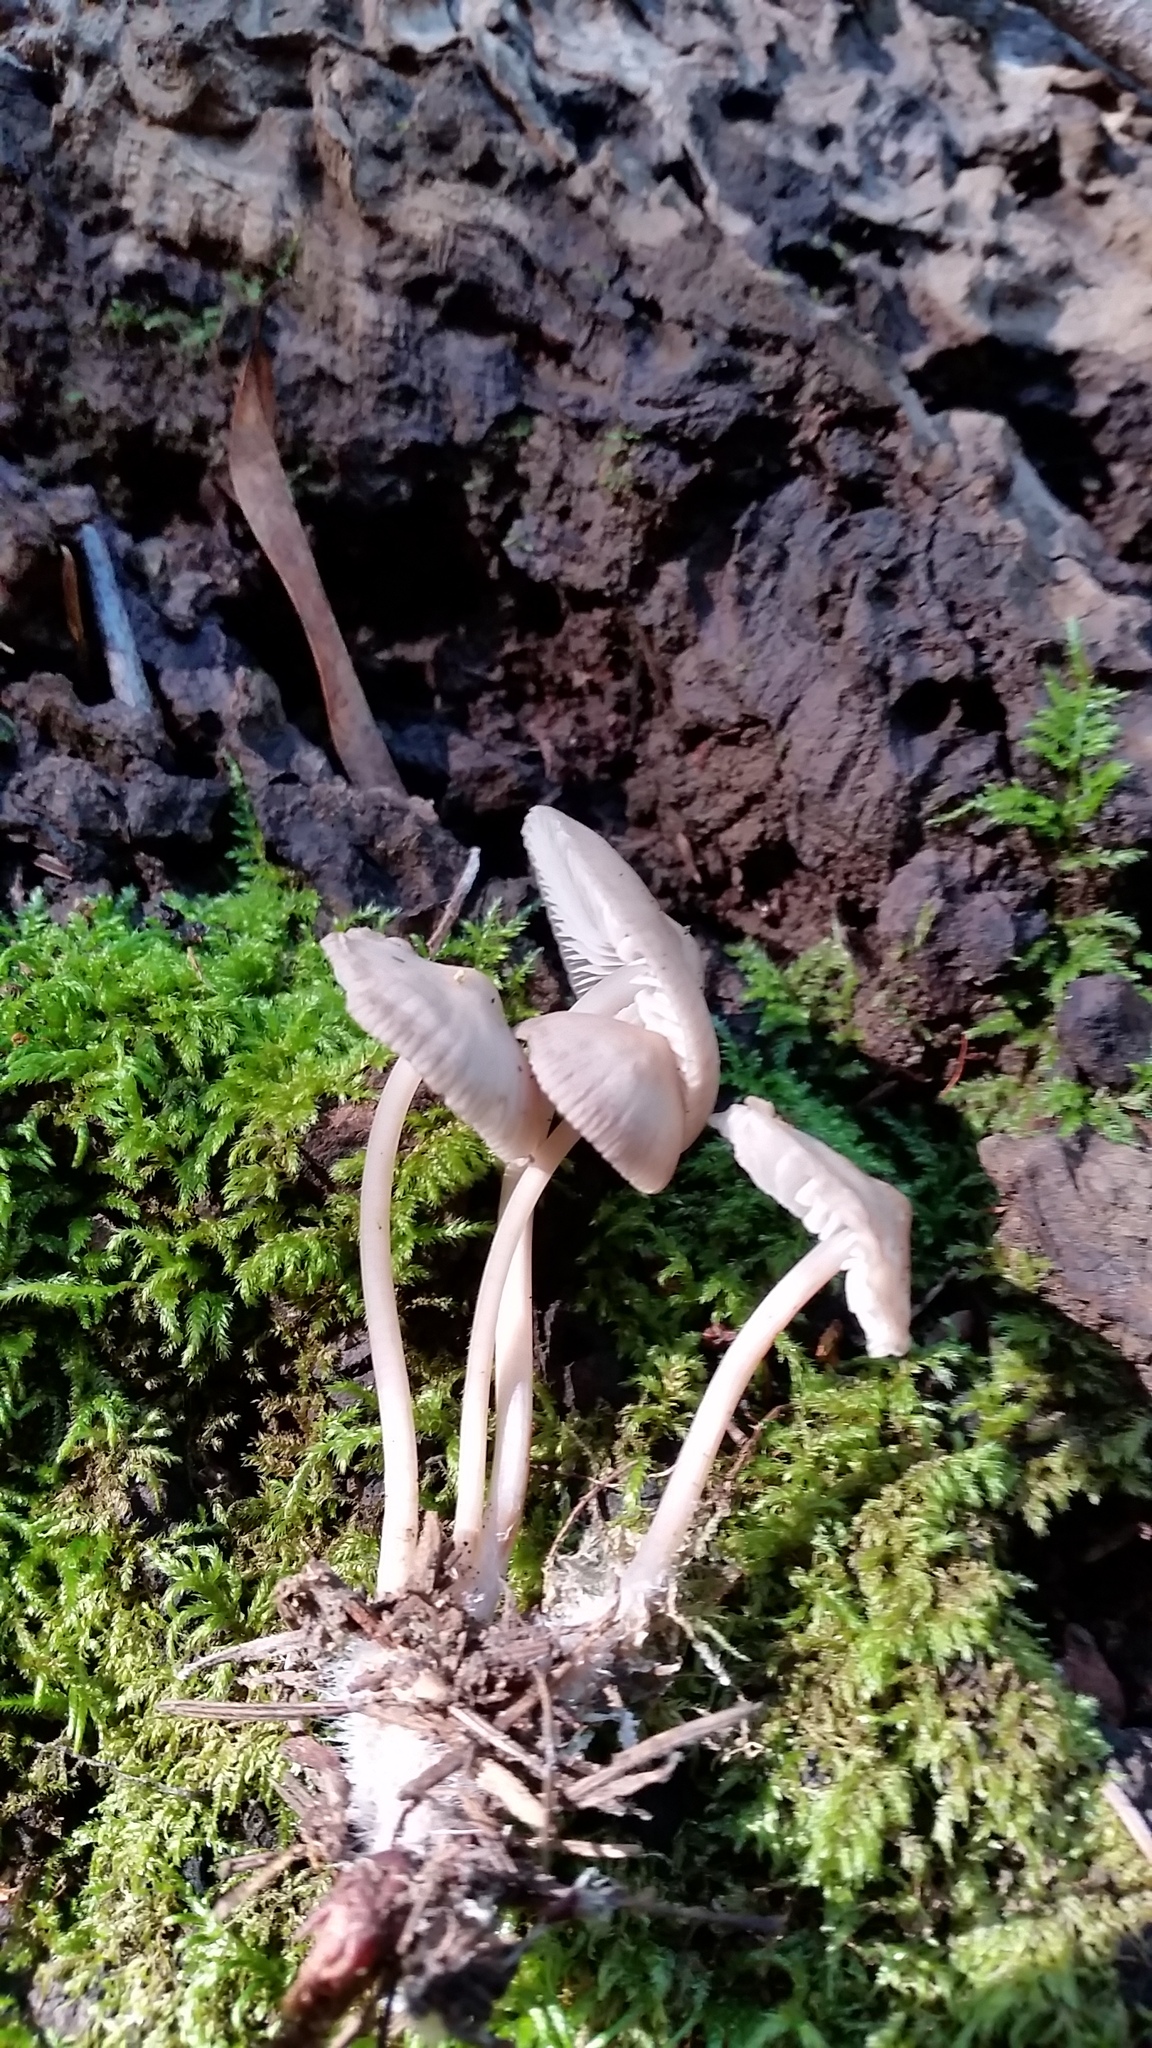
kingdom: Fungi
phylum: Basidiomycota
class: Agaricomycetes
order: Agaricales
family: Mycenaceae
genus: Mycena
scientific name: Mycena maculata
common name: Stained bonnet
